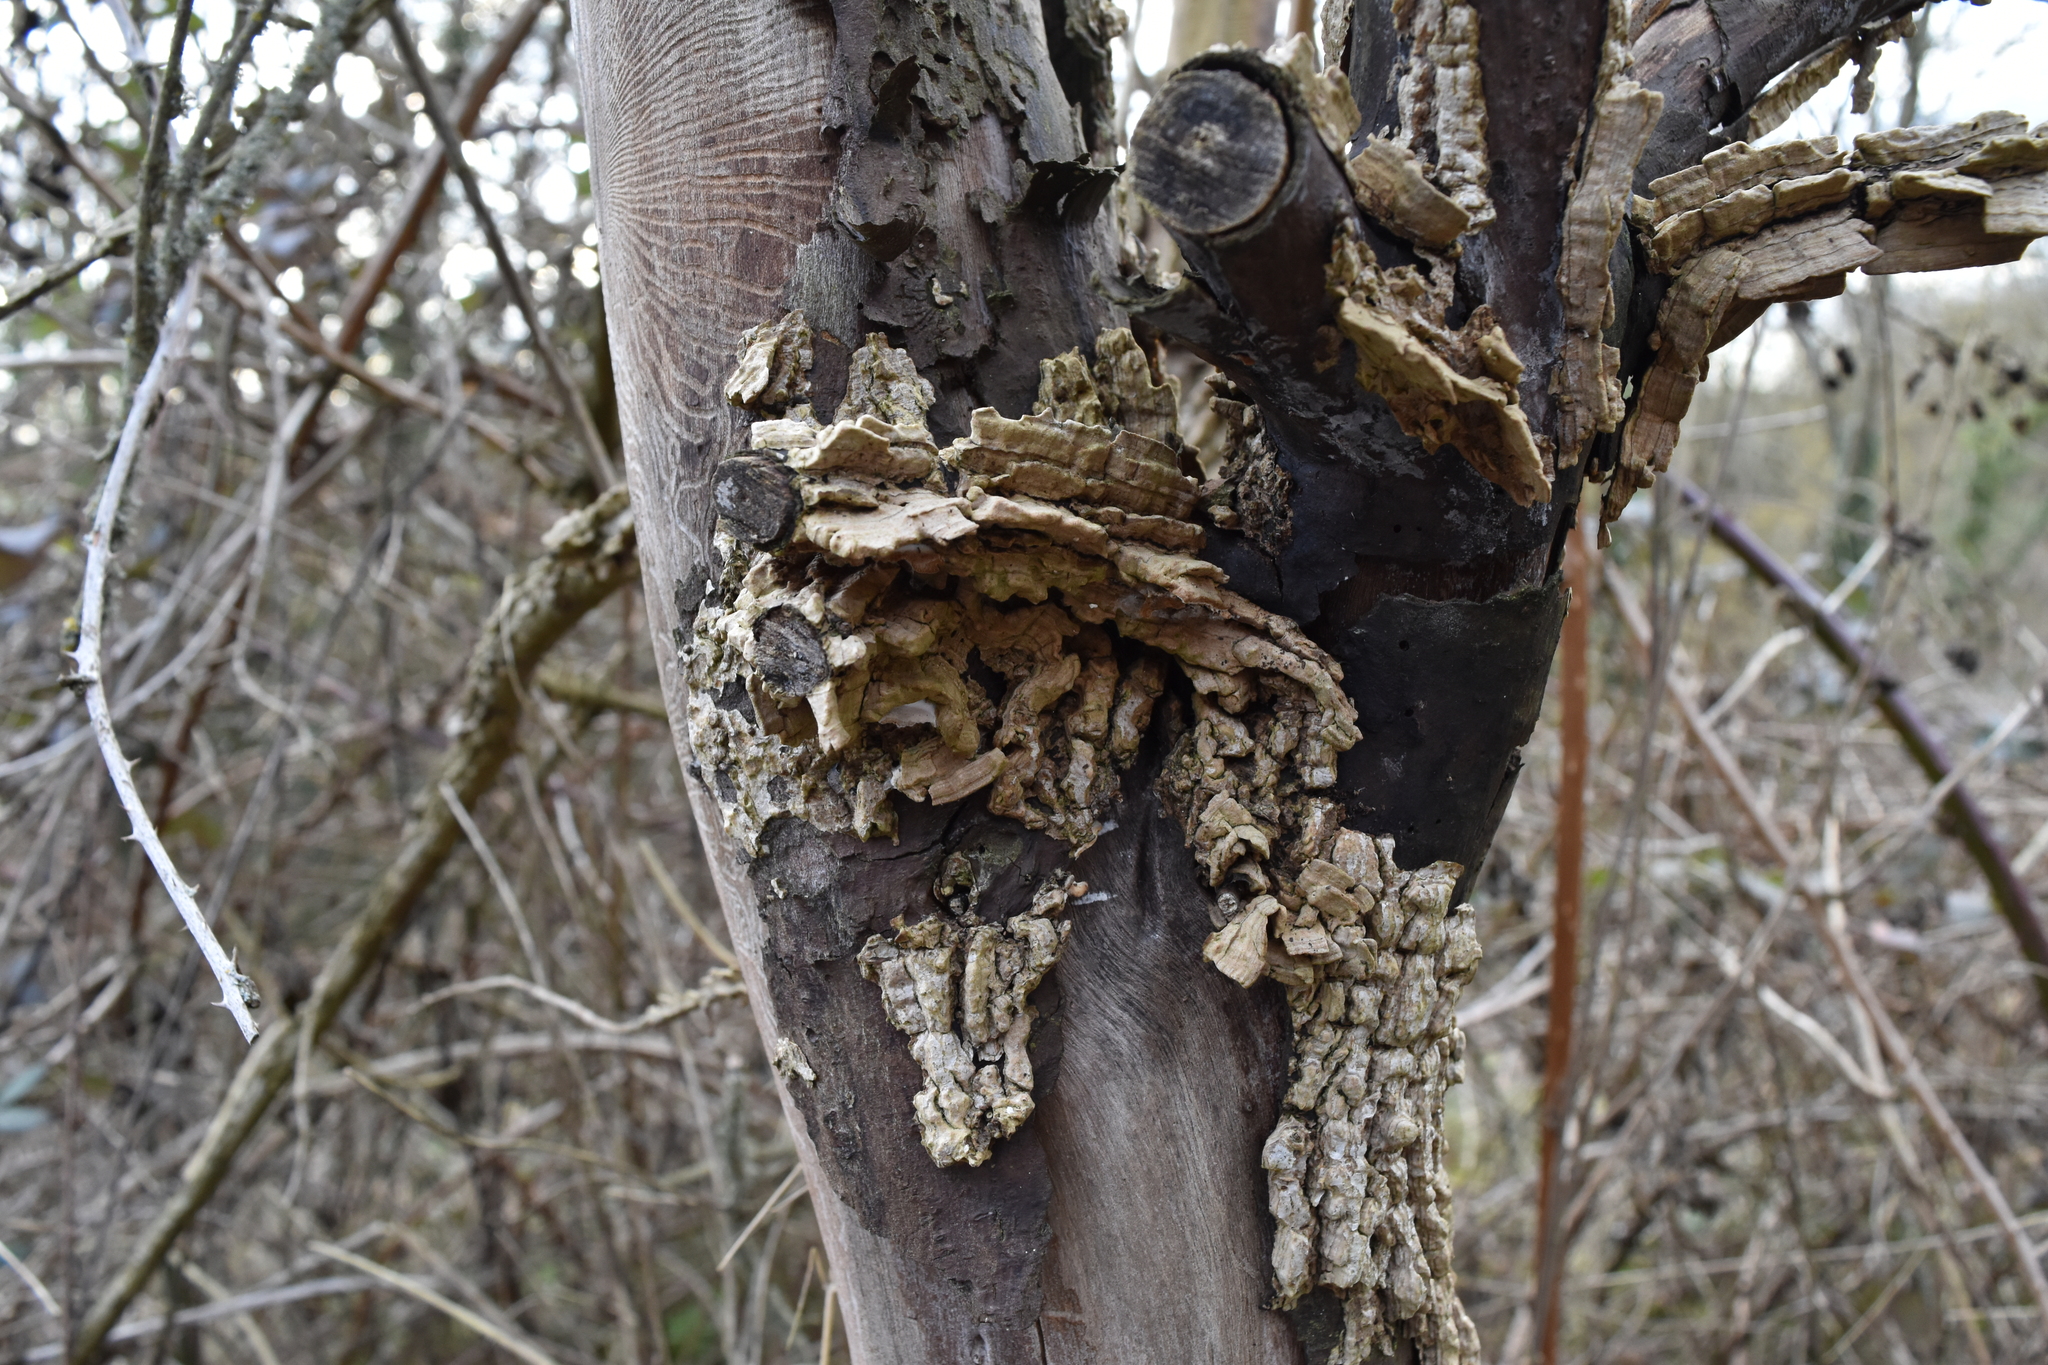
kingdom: Plantae
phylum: Tracheophyta
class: Magnoliopsida
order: Rosales
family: Ulmaceae
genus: Ulmus
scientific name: Ulmus
